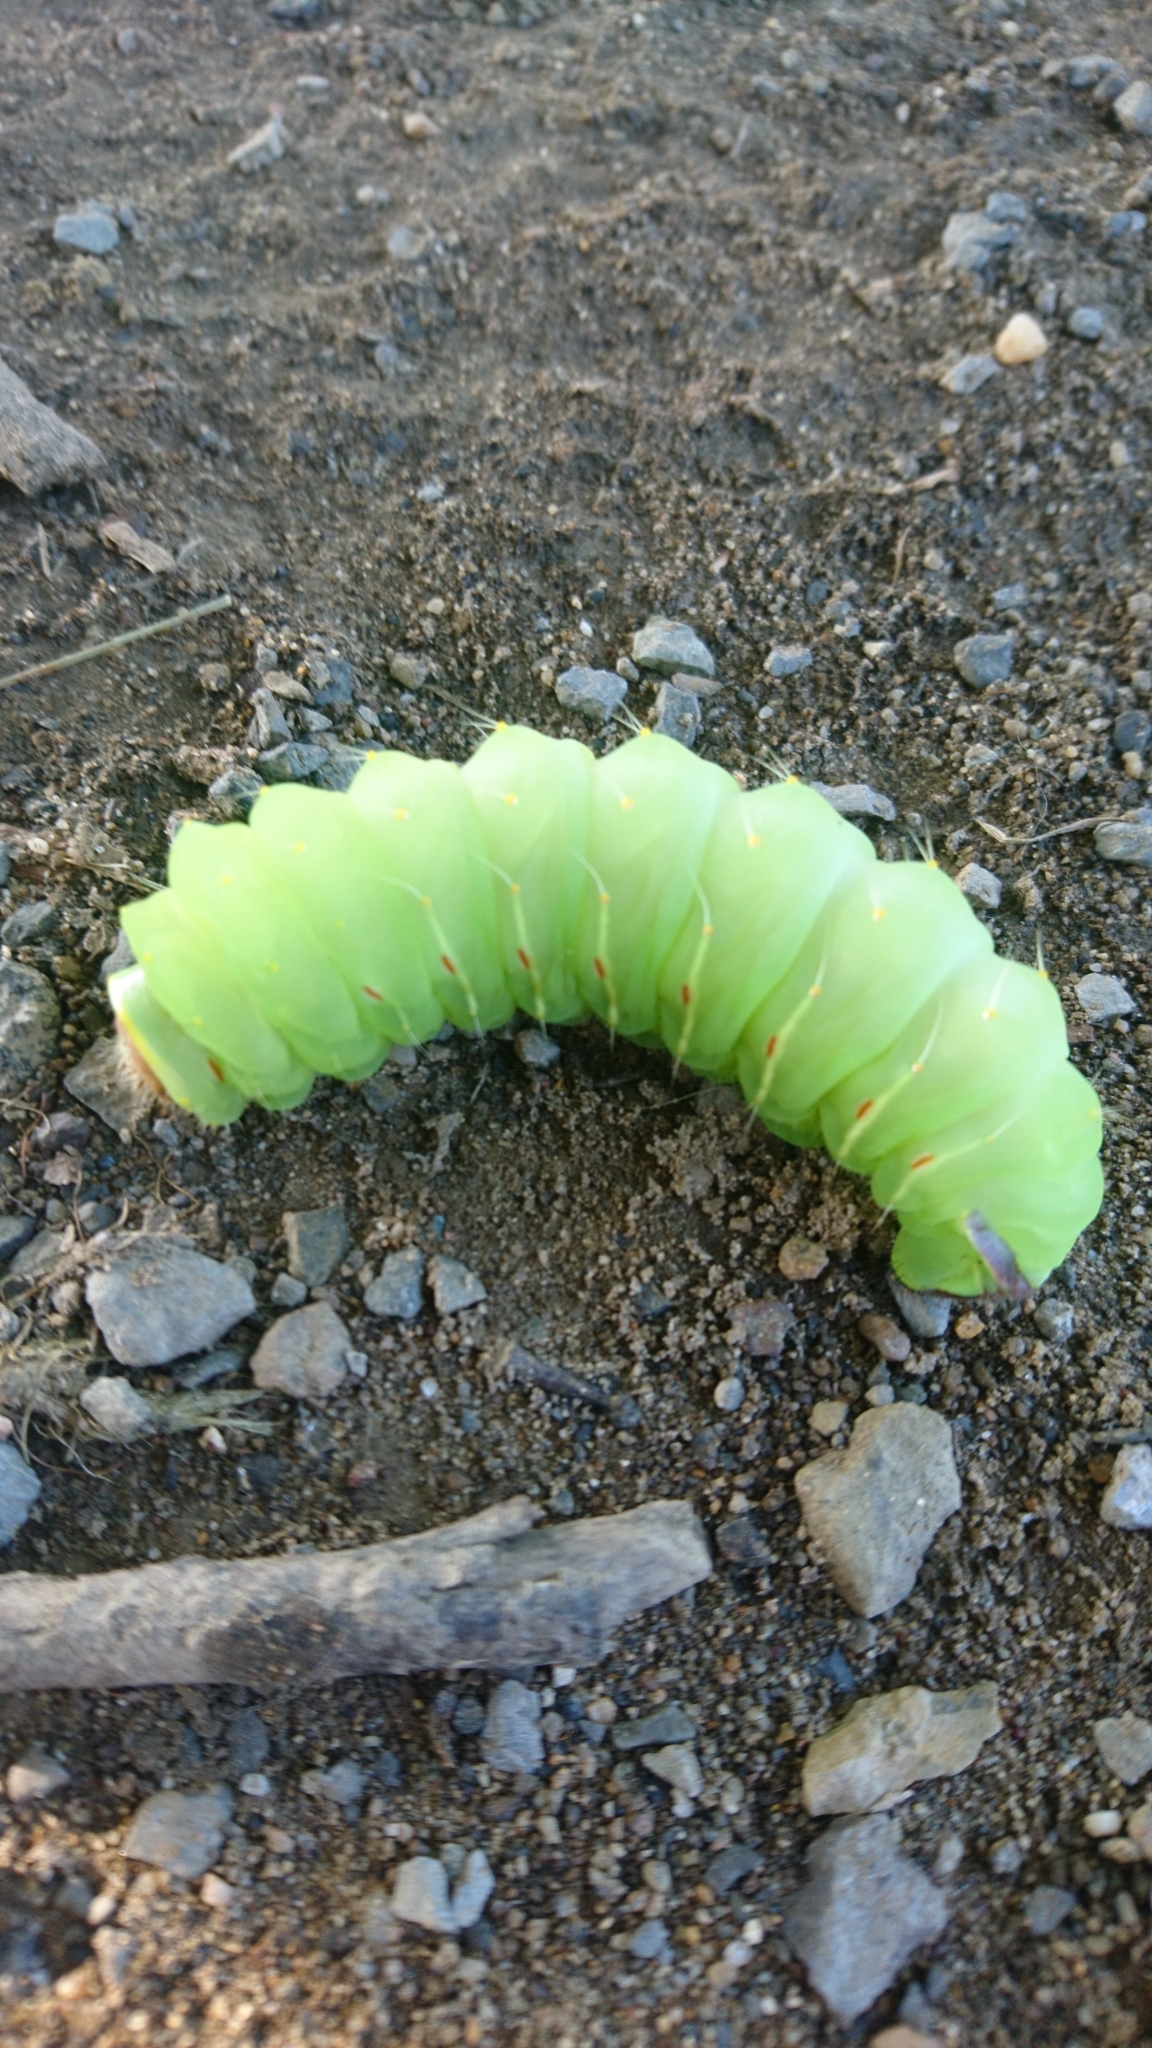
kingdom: Animalia
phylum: Arthropoda
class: Insecta
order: Lepidoptera
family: Saturniidae
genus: Antheraea
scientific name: Antheraea polyphemus
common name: Polyphemus moth
